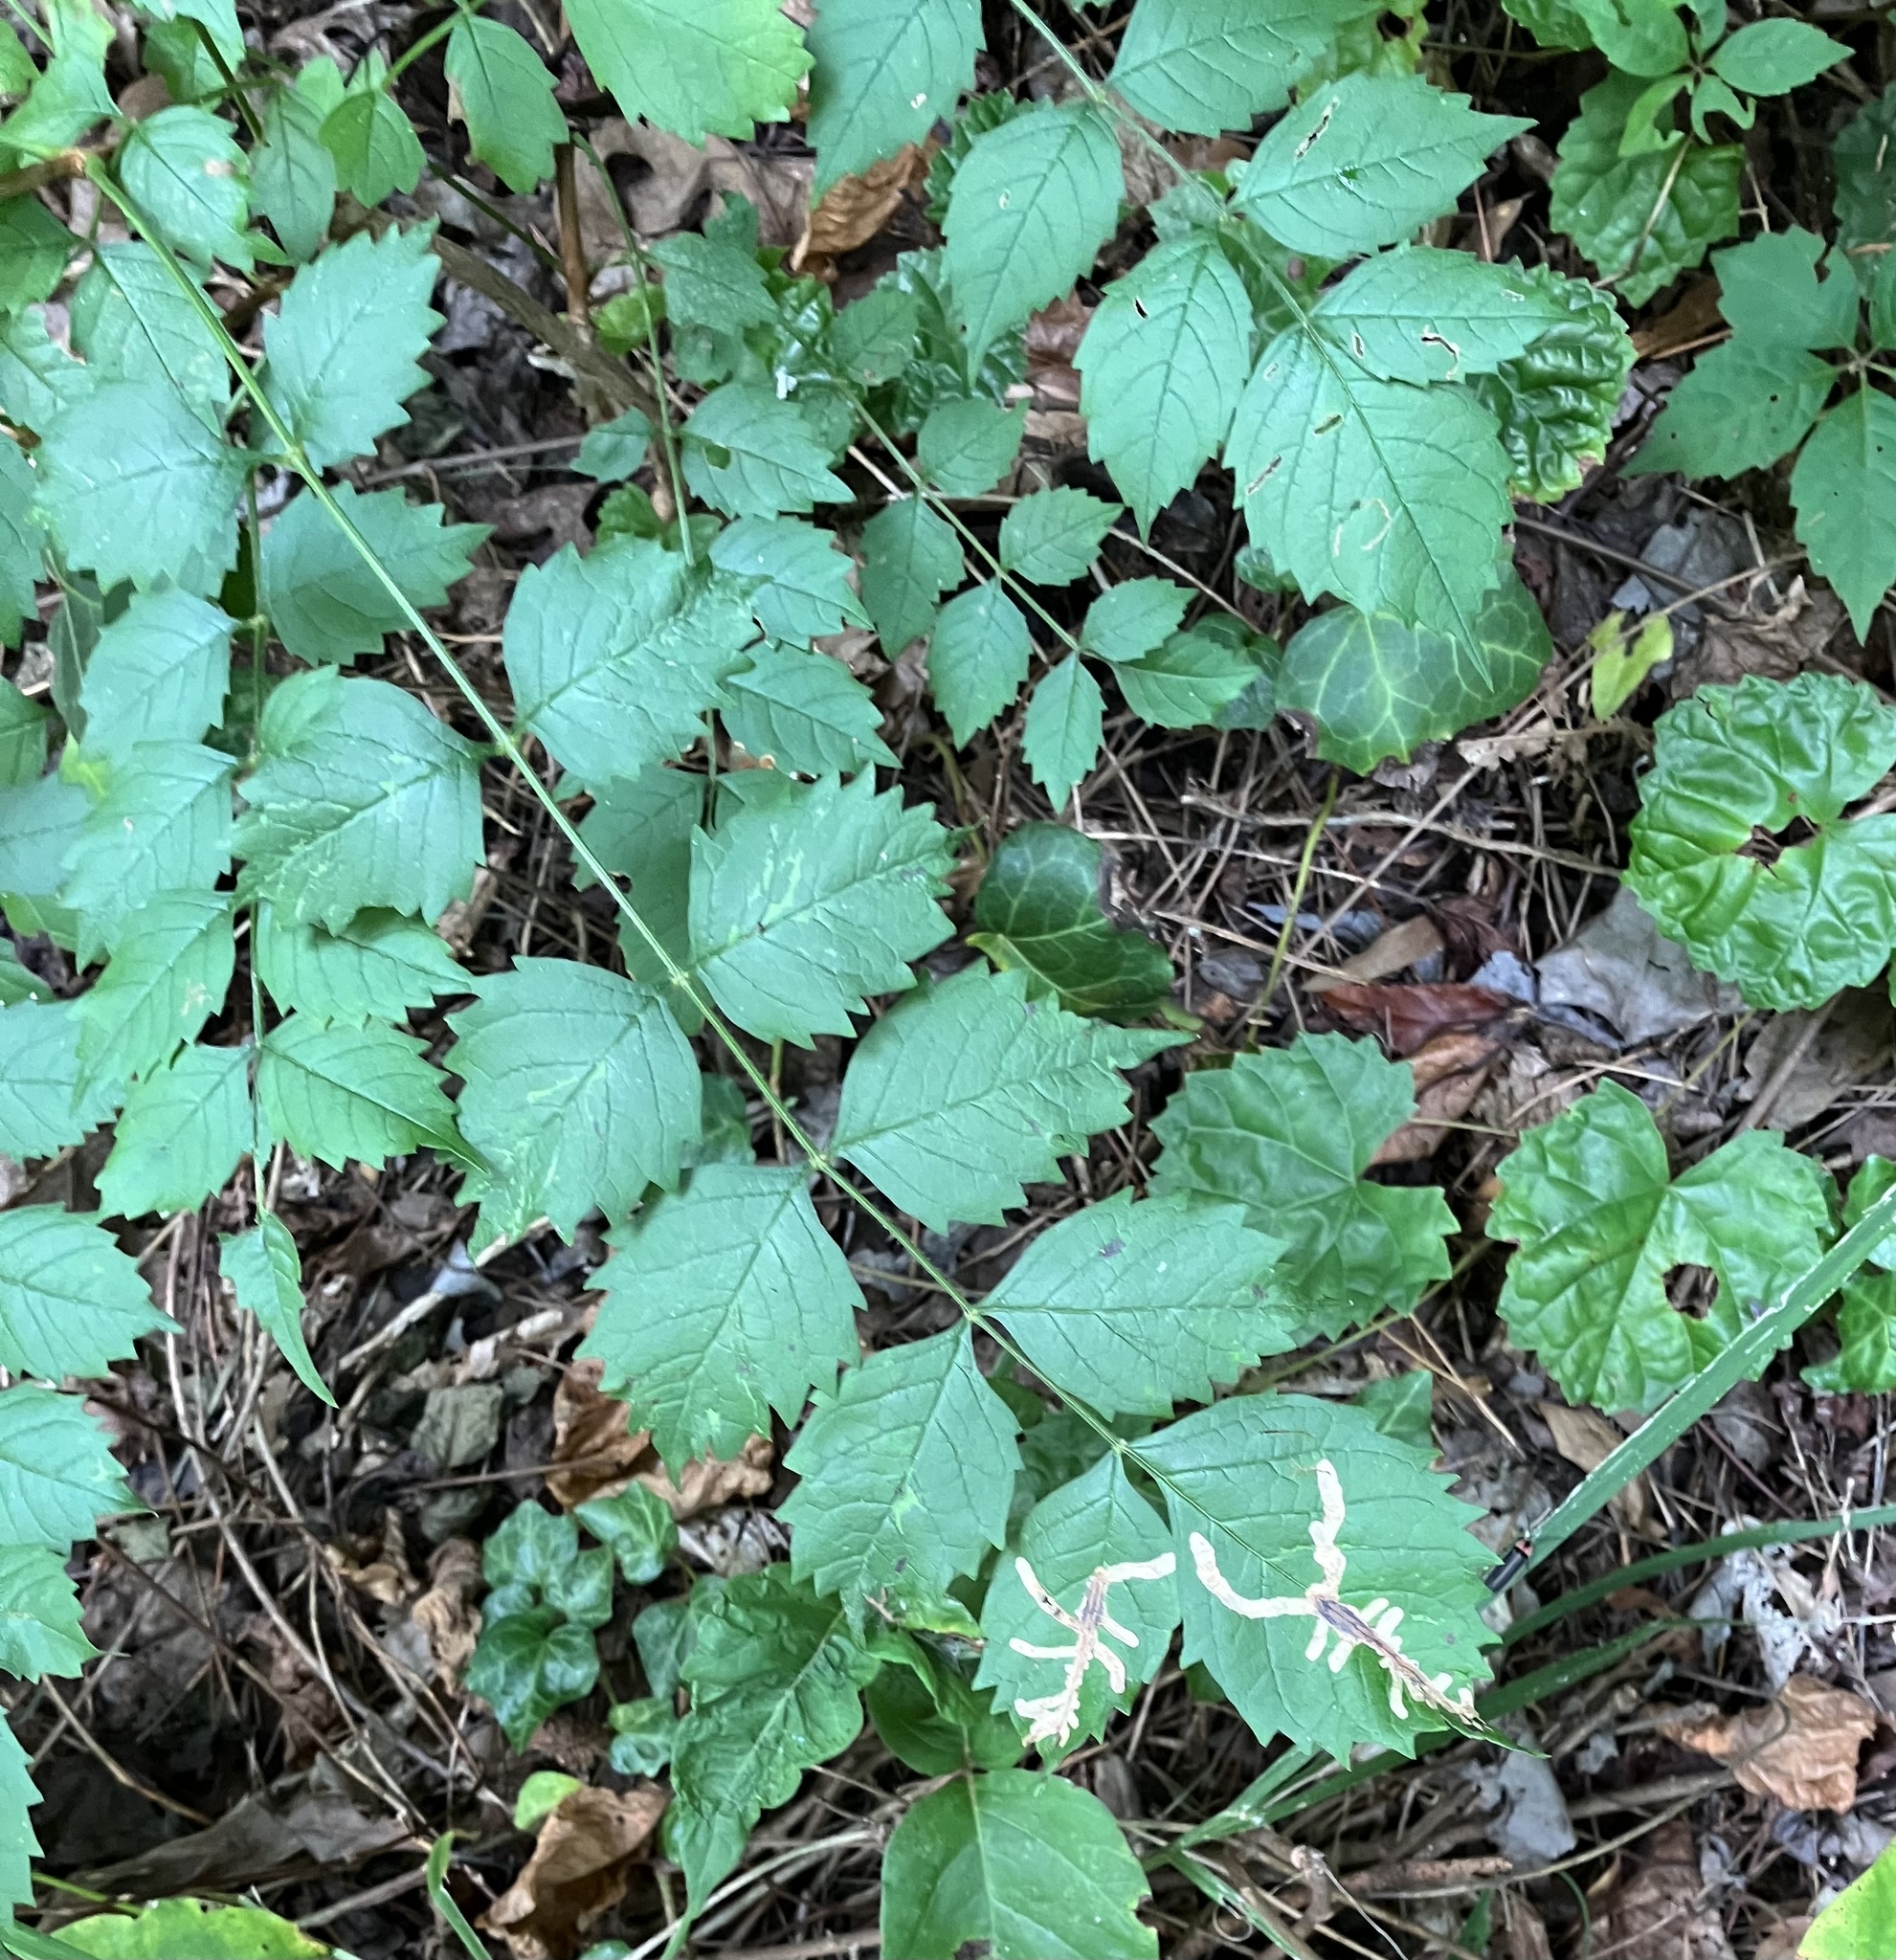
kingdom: Animalia
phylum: Arthropoda
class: Insecta
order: Coleoptera
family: Chrysomelidae
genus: Octotoma
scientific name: Octotoma plicatula
